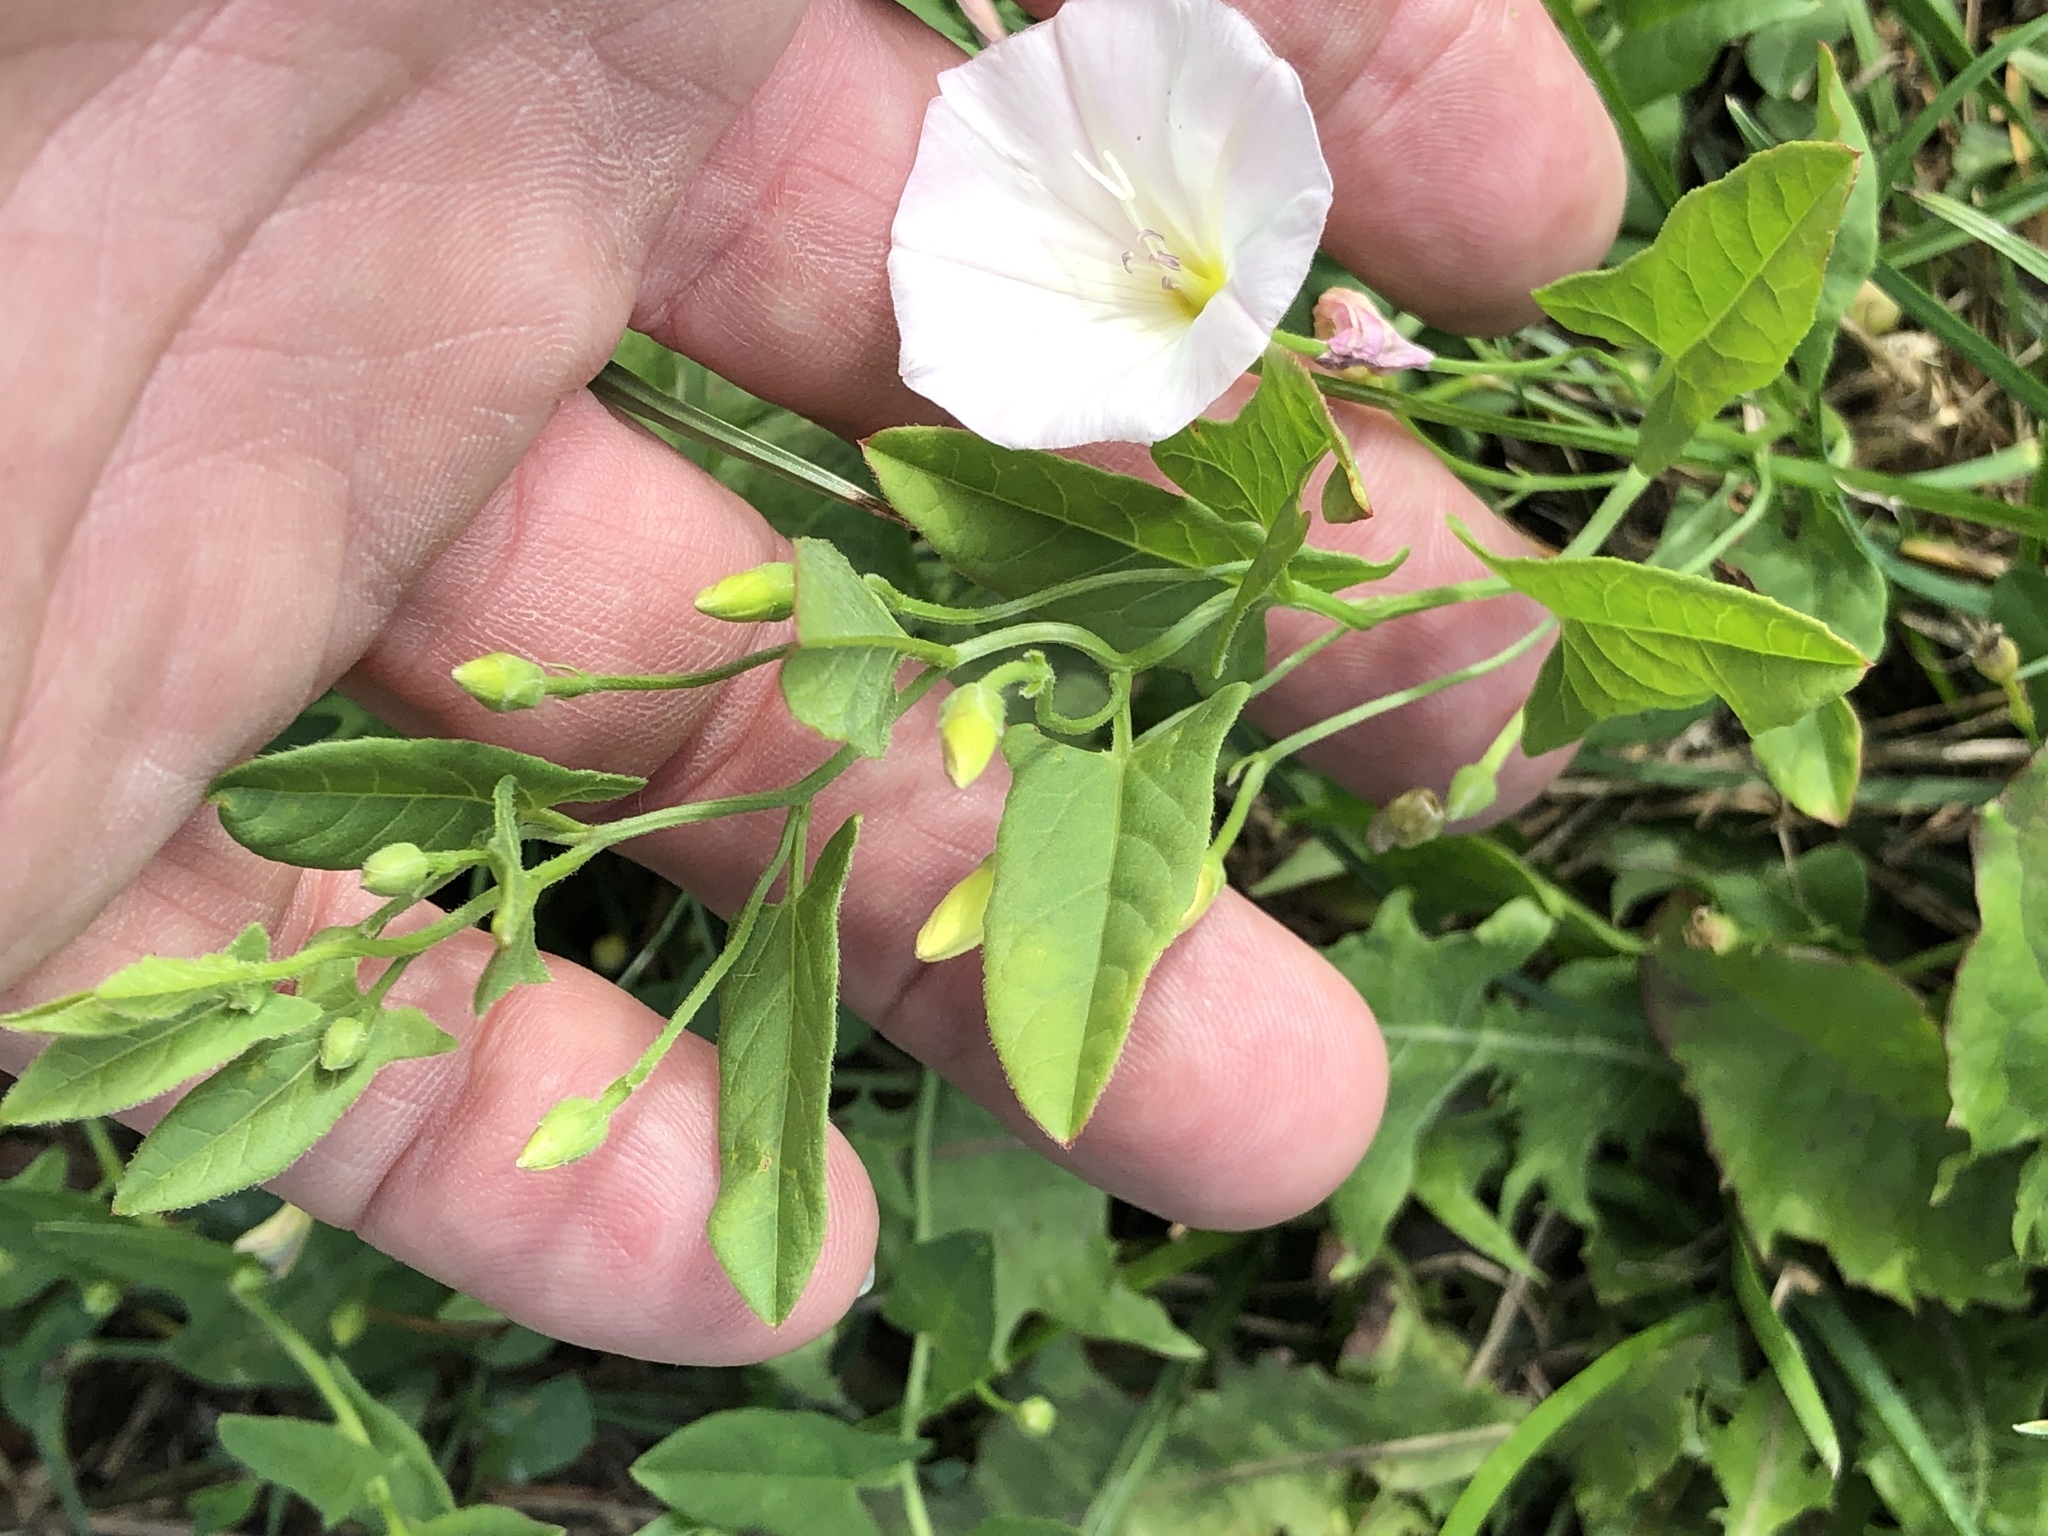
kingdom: Plantae
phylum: Tracheophyta
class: Magnoliopsida
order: Solanales
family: Convolvulaceae
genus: Convolvulus
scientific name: Convolvulus arvensis
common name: Field bindweed
